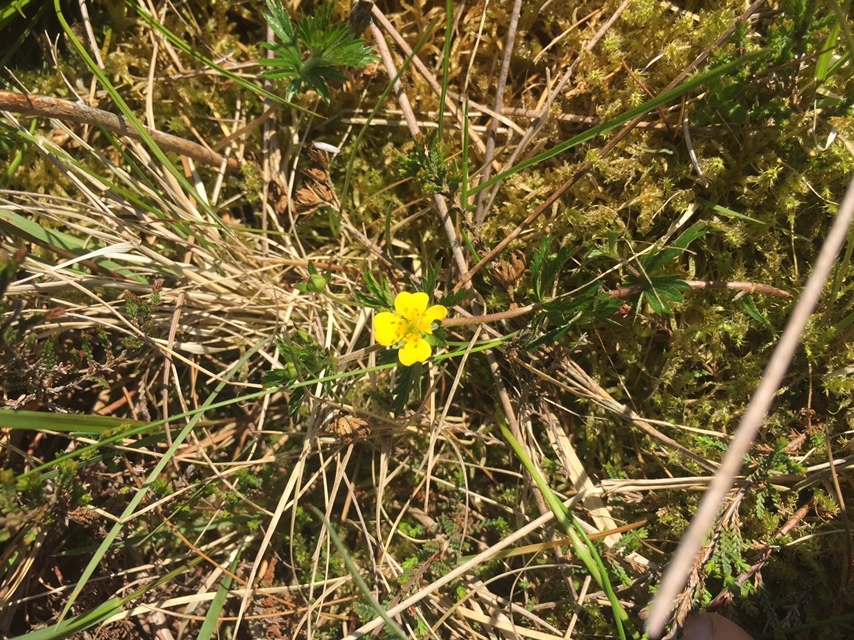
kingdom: Plantae
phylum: Tracheophyta
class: Magnoliopsida
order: Rosales
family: Rosaceae
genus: Potentilla
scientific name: Potentilla erecta
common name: Tormentil
